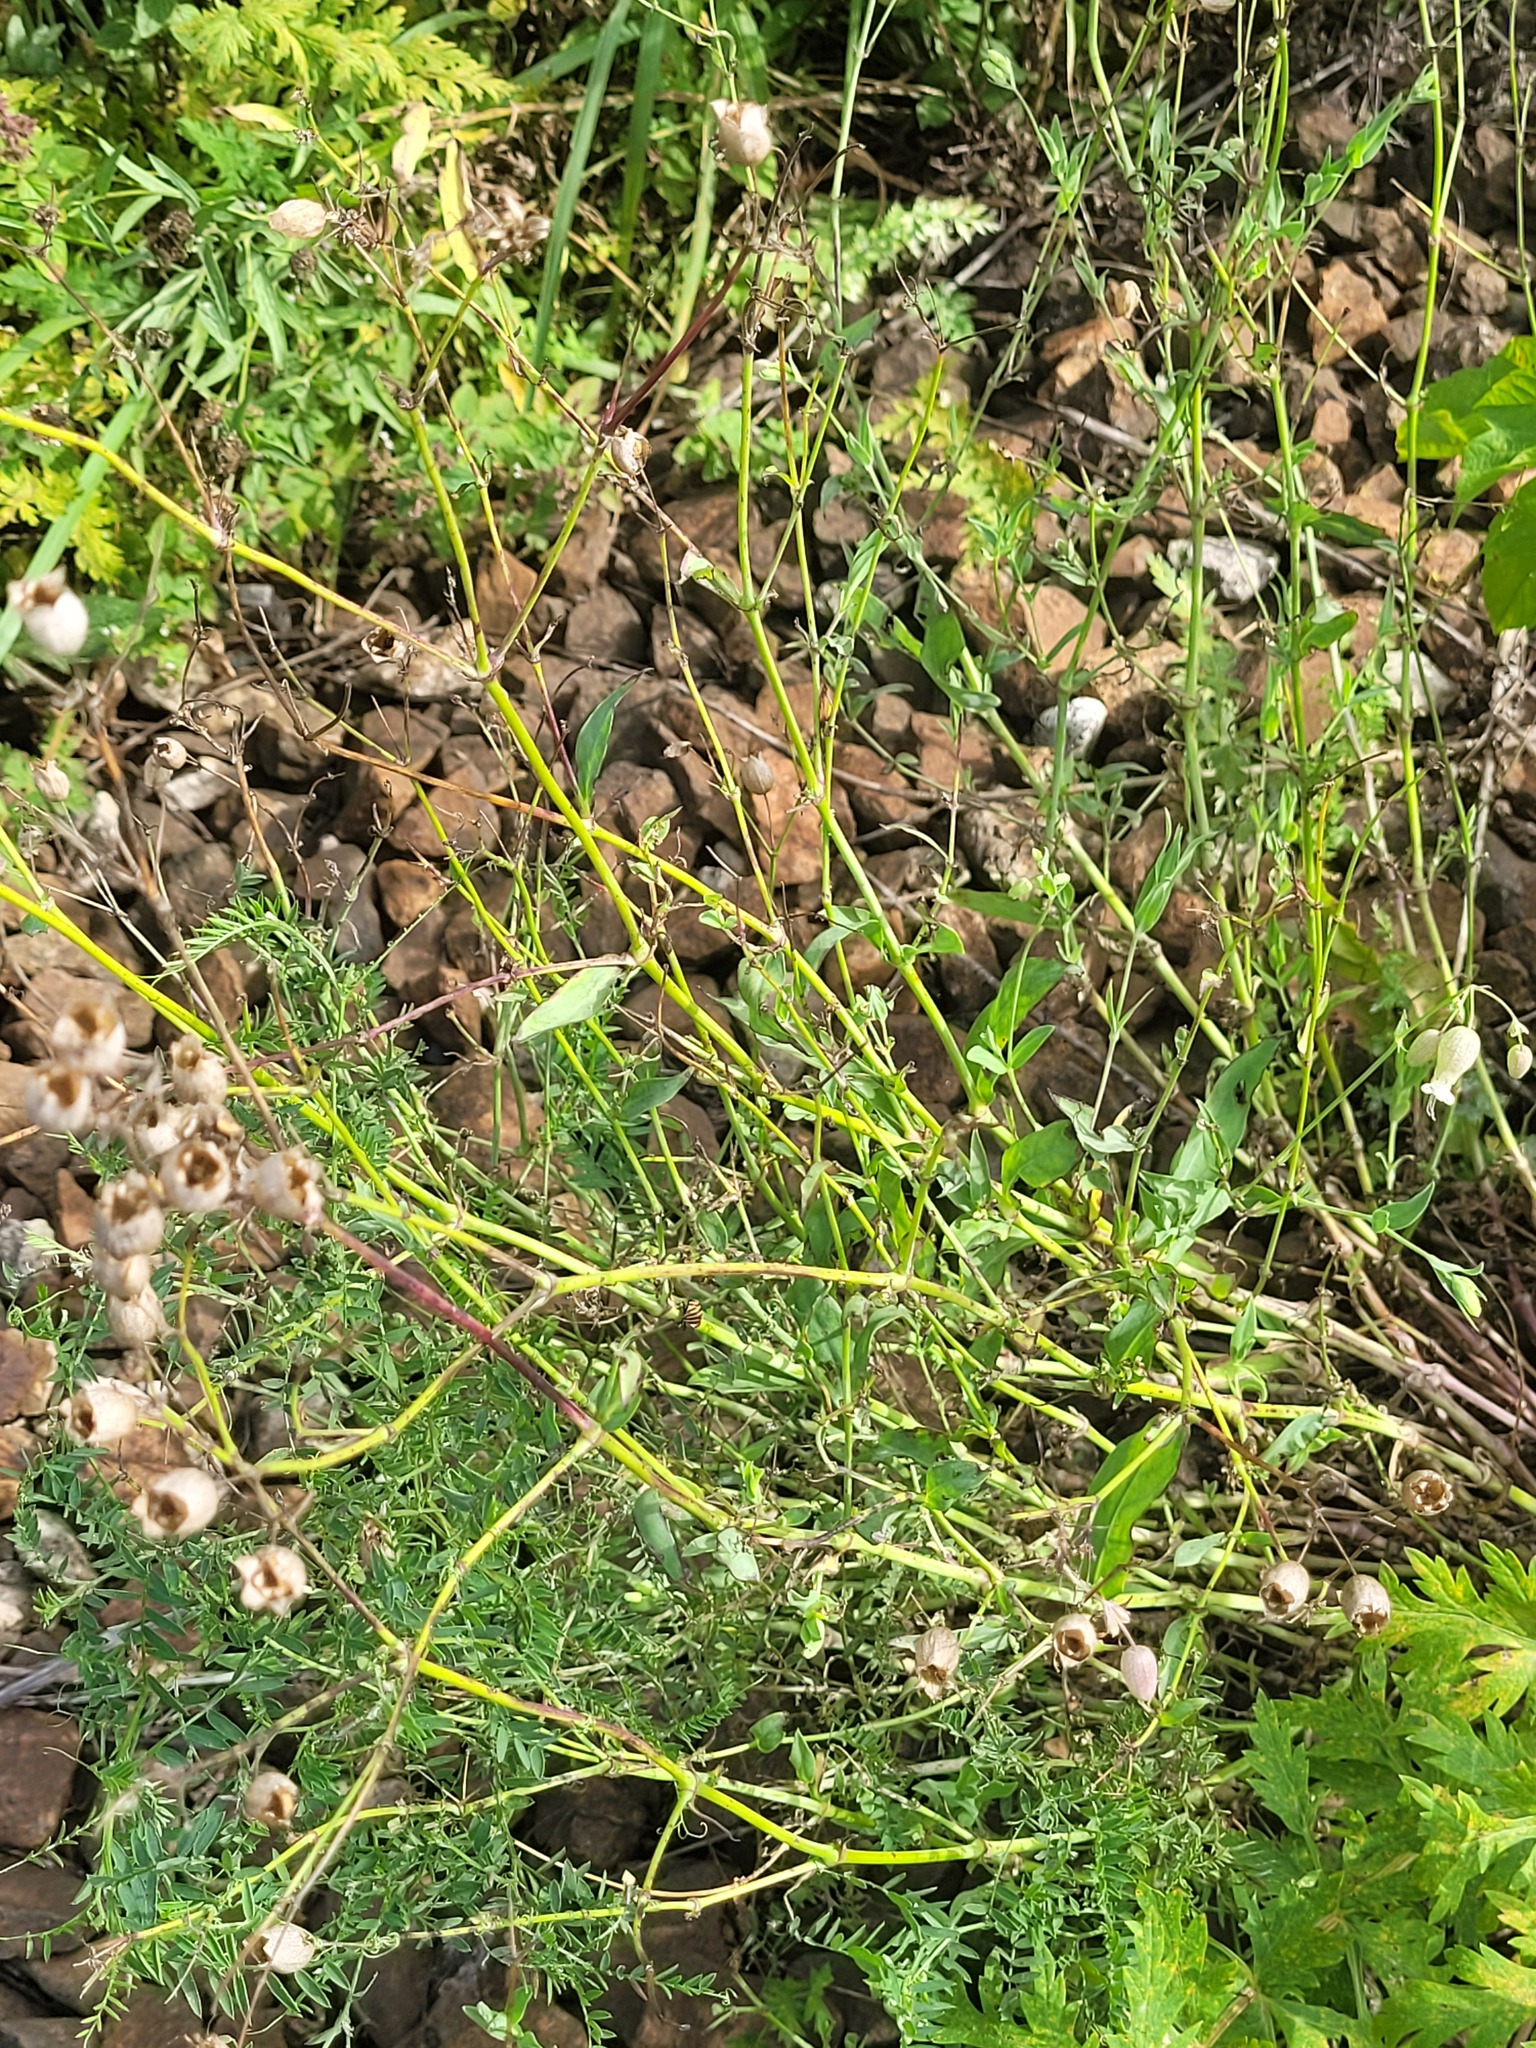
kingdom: Plantae
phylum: Tracheophyta
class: Magnoliopsida
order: Caryophyllales
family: Caryophyllaceae
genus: Silene
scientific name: Silene vulgaris
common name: Bladder campion
